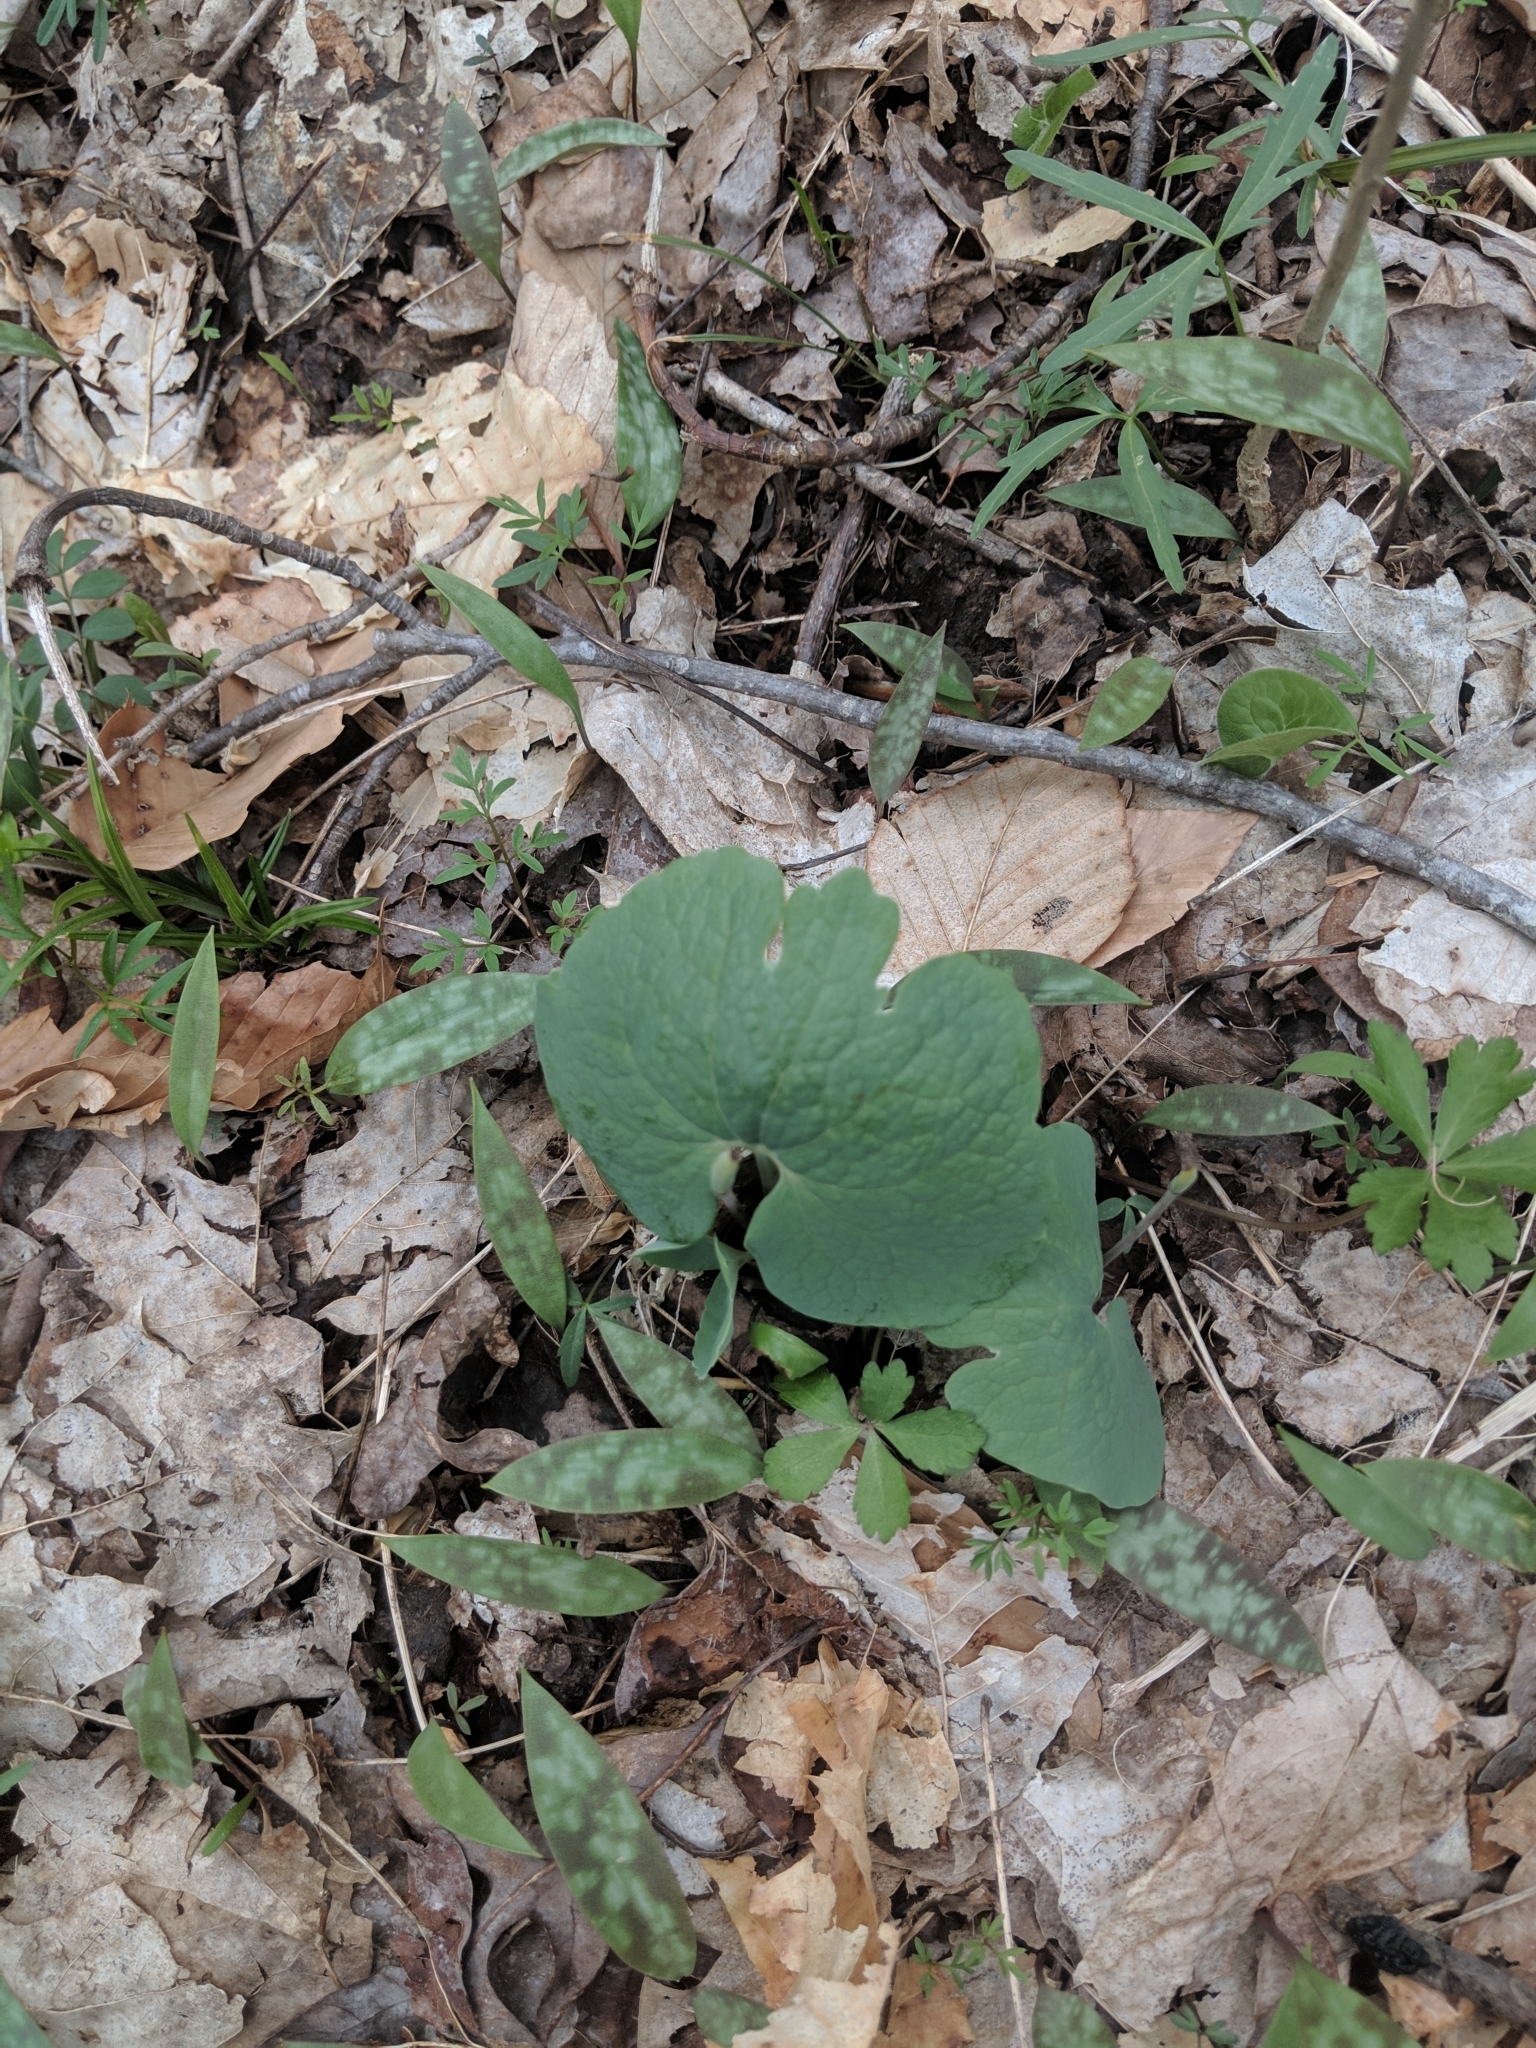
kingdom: Plantae
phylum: Tracheophyta
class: Magnoliopsida
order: Ranunculales
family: Papaveraceae
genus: Sanguinaria
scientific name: Sanguinaria canadensis
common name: Bloodroot
